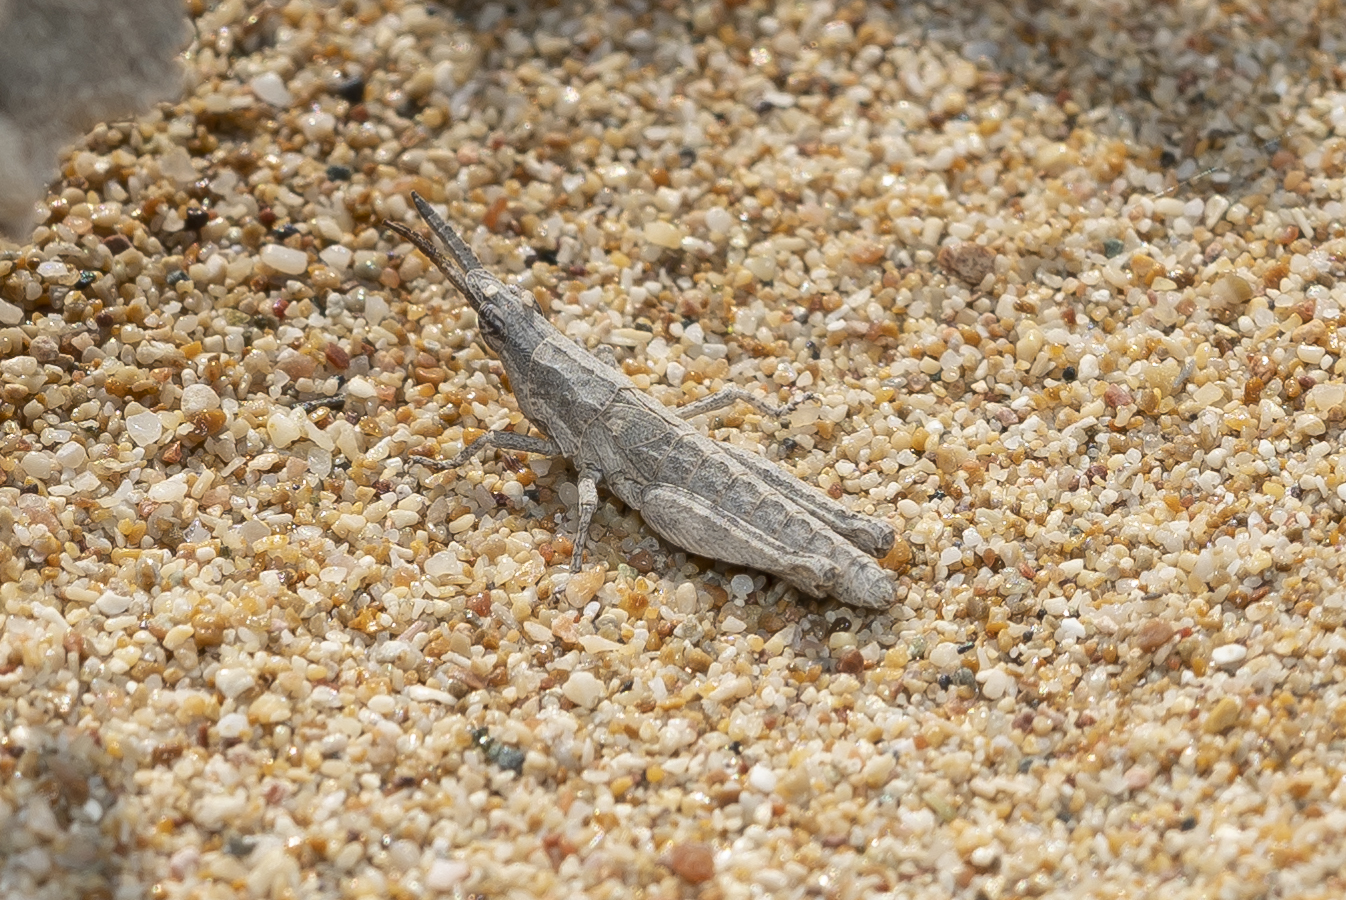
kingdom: Animalia
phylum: Arthropoda
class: Insecta
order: Orthoptera
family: Pyrgomorphidae
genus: Pyrgomorpha
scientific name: Pyrgomorpha conica
